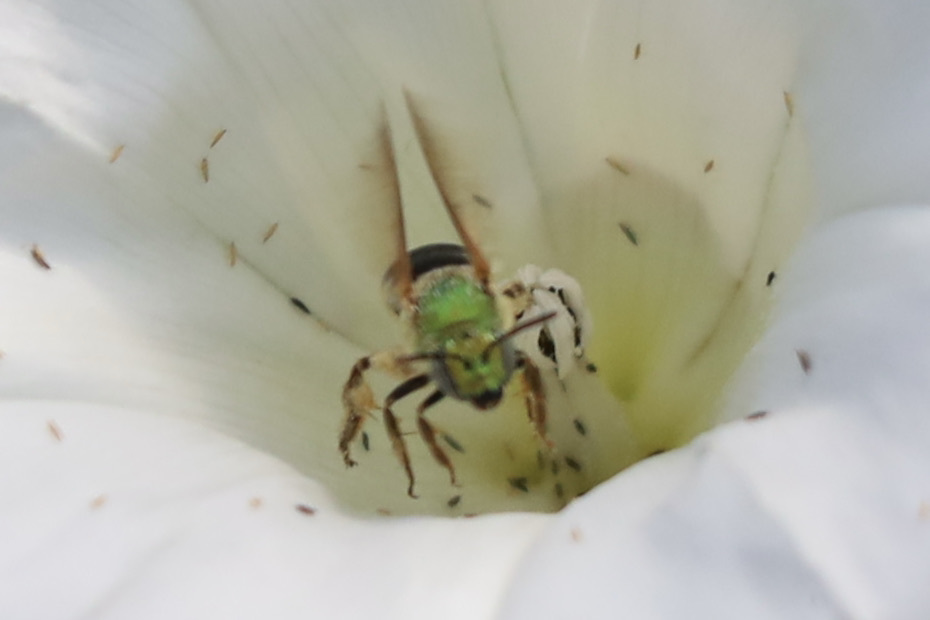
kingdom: Animalia
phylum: Arthropoda
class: Insecta
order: Hymenoptera
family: Halictidae
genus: Agapostemon
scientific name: Agapostemon virescens
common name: Bicolored striped sweat bee
